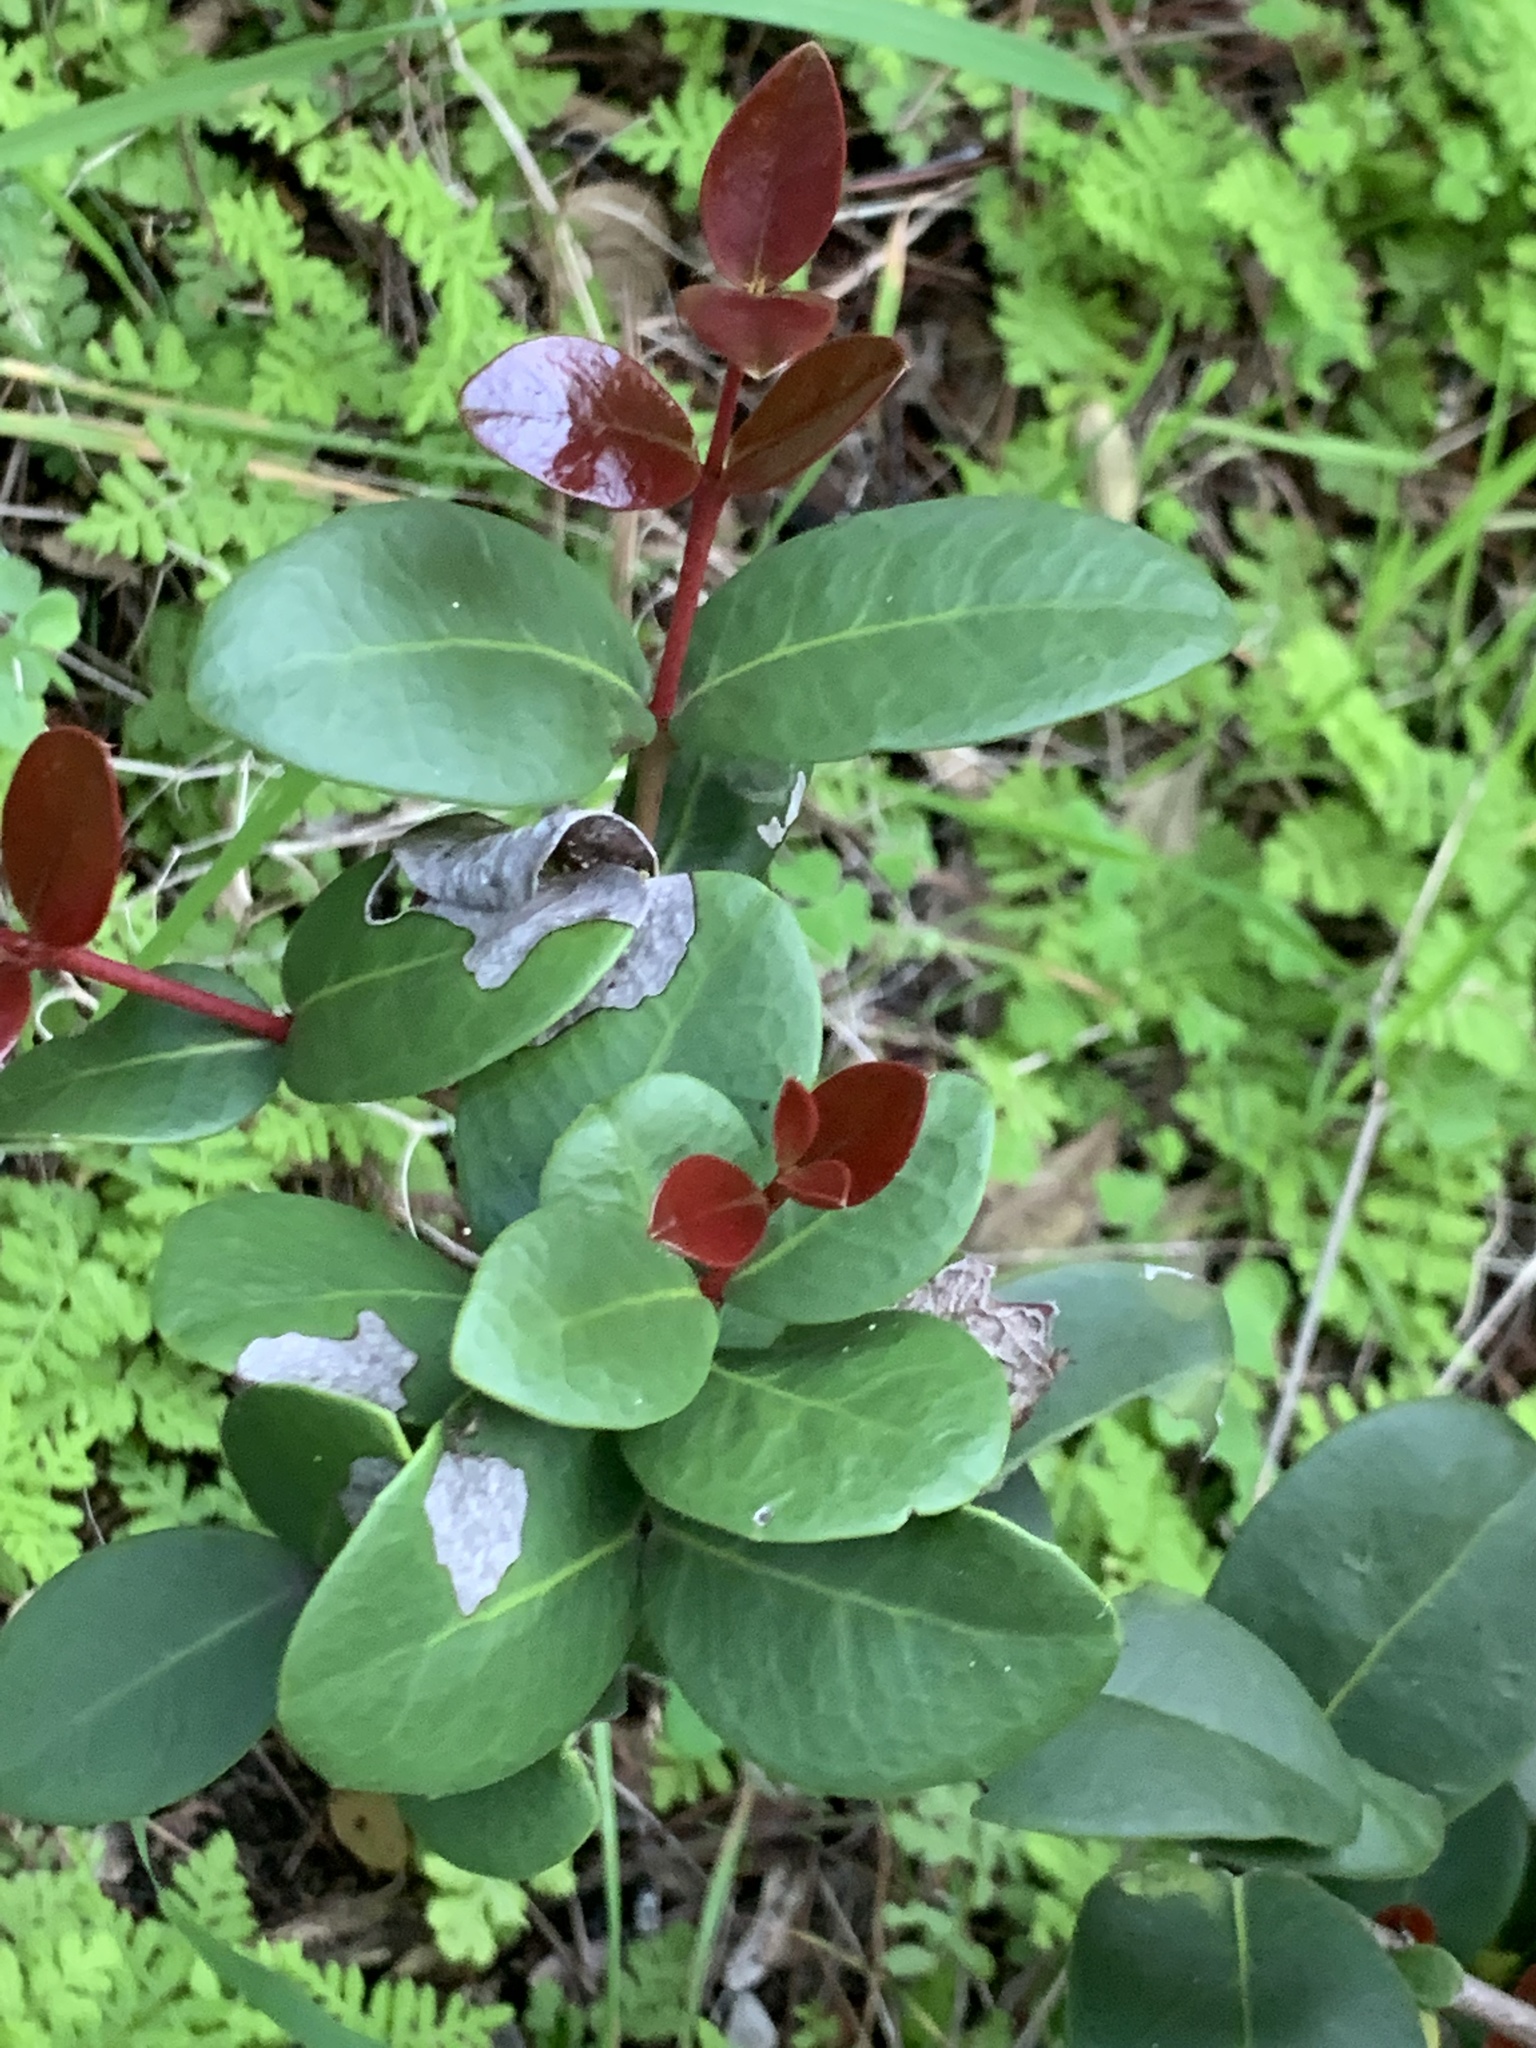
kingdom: Plantae
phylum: Tracheophyta
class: Magnoliopsida
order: Celastrales
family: Celastraceae
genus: Maurocenia
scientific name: Maurocenia frangula
